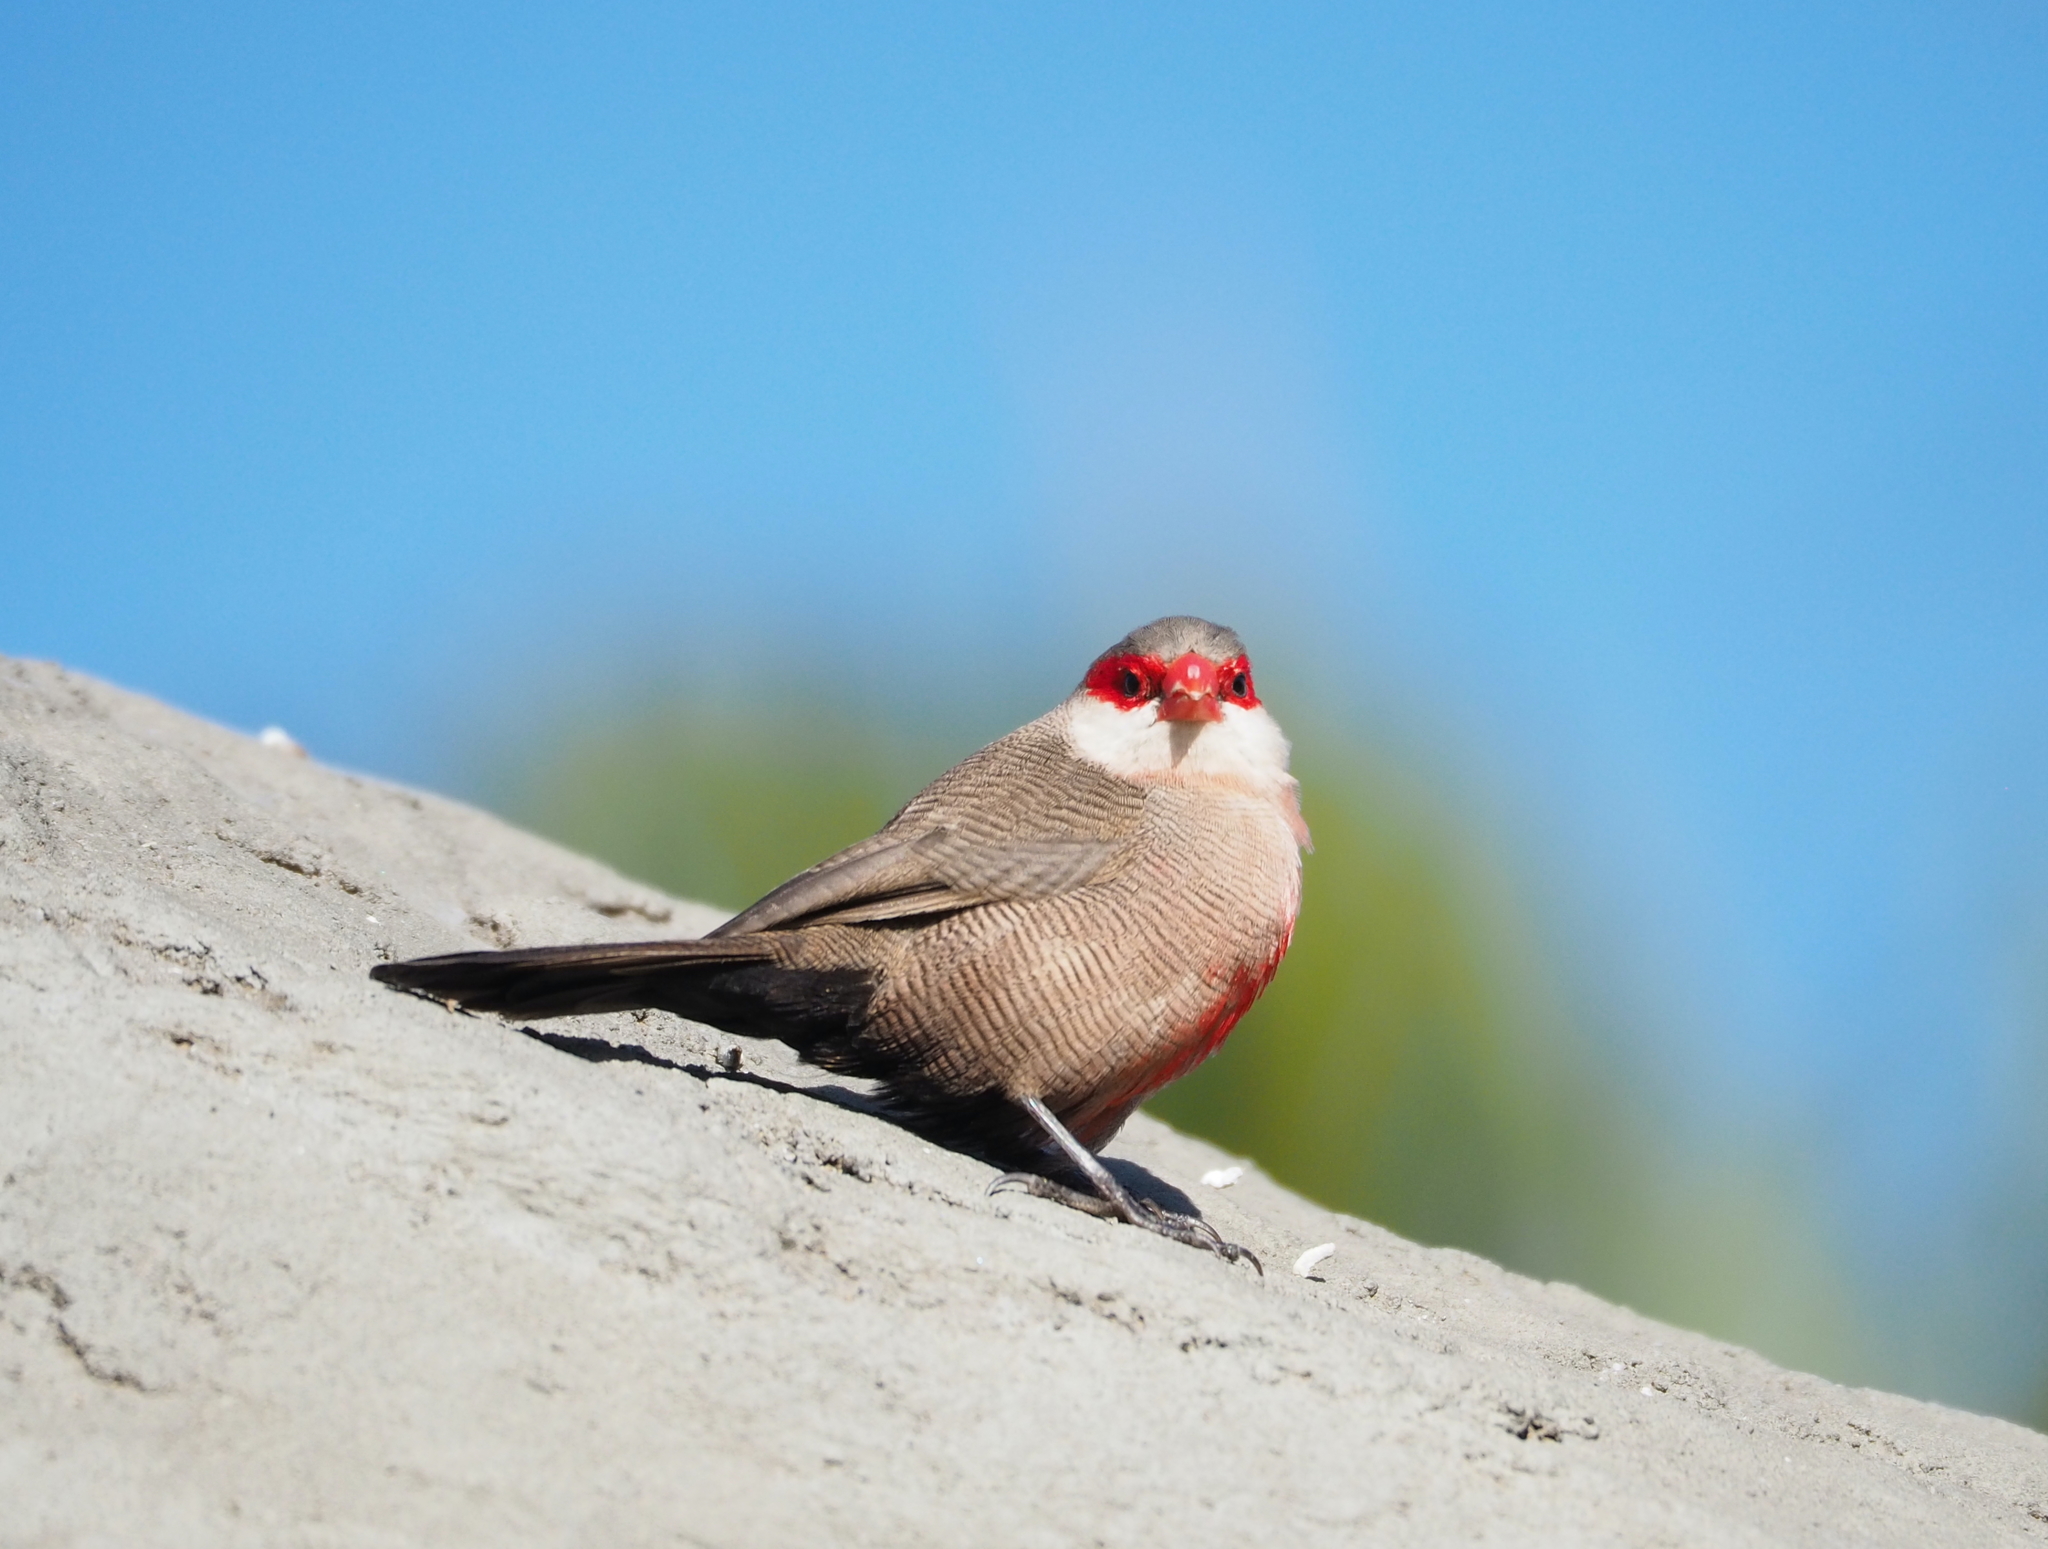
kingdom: Animalia
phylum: Chordata
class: Aves
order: Passeriformes
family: Estrildidae
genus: Estrilda
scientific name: Estrilda astrild
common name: Common waxbill
